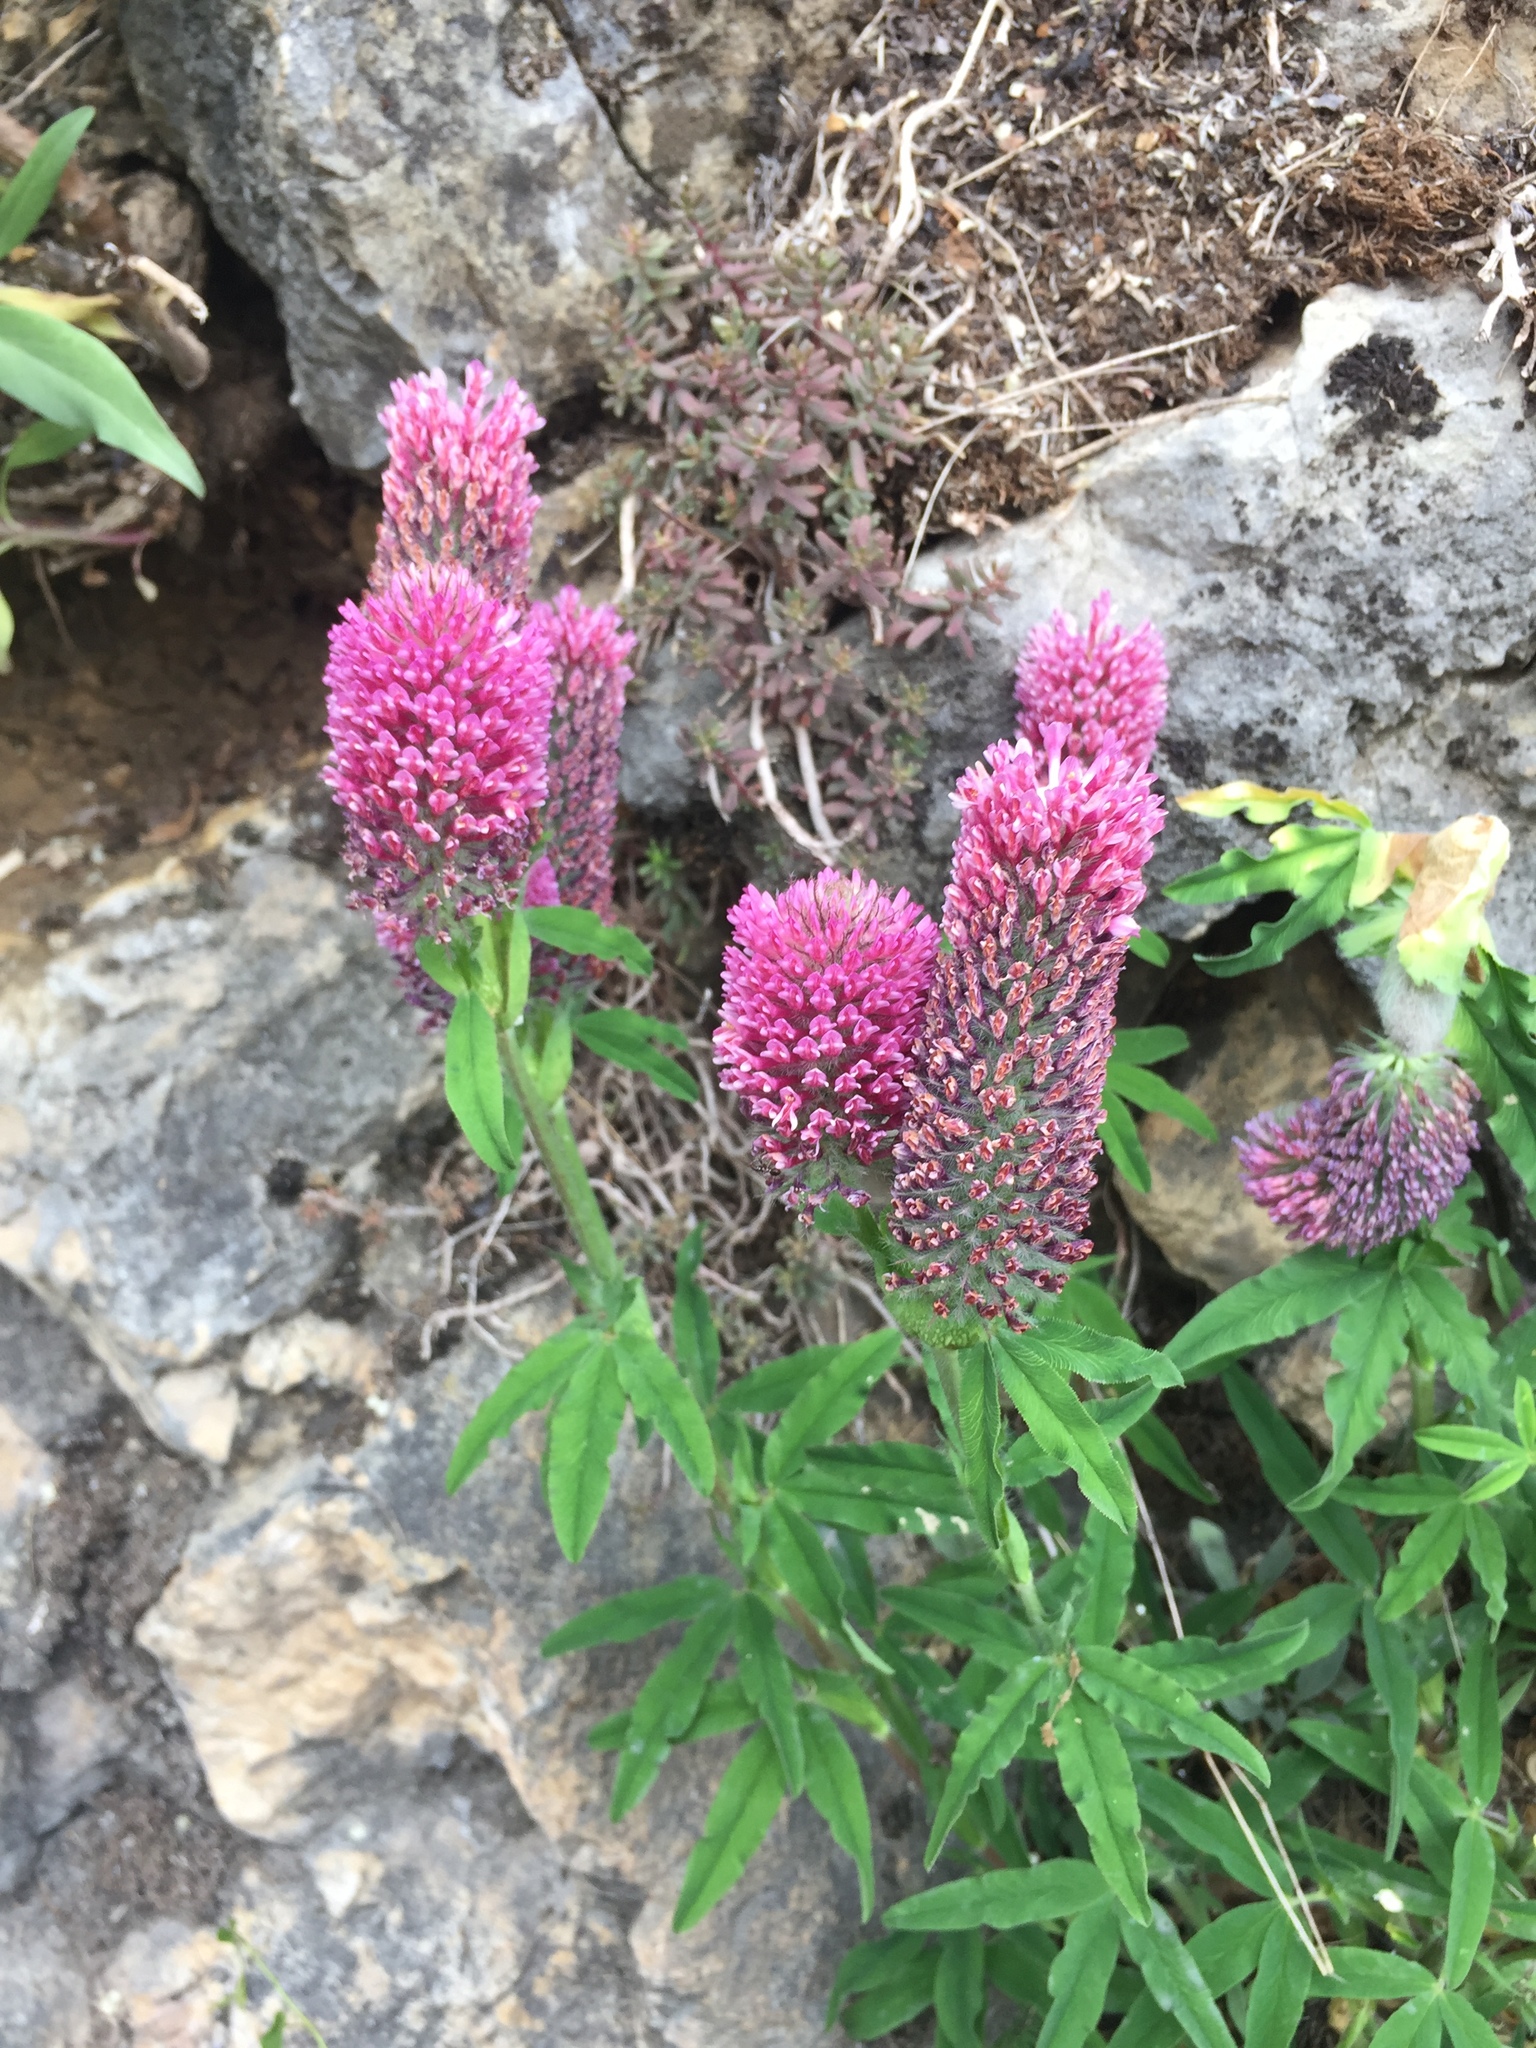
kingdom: Plantae
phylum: Tracheophyta
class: Magnoliopsida
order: Fabales
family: Fabaceae
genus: Trifolium
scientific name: Trifolium rubens
